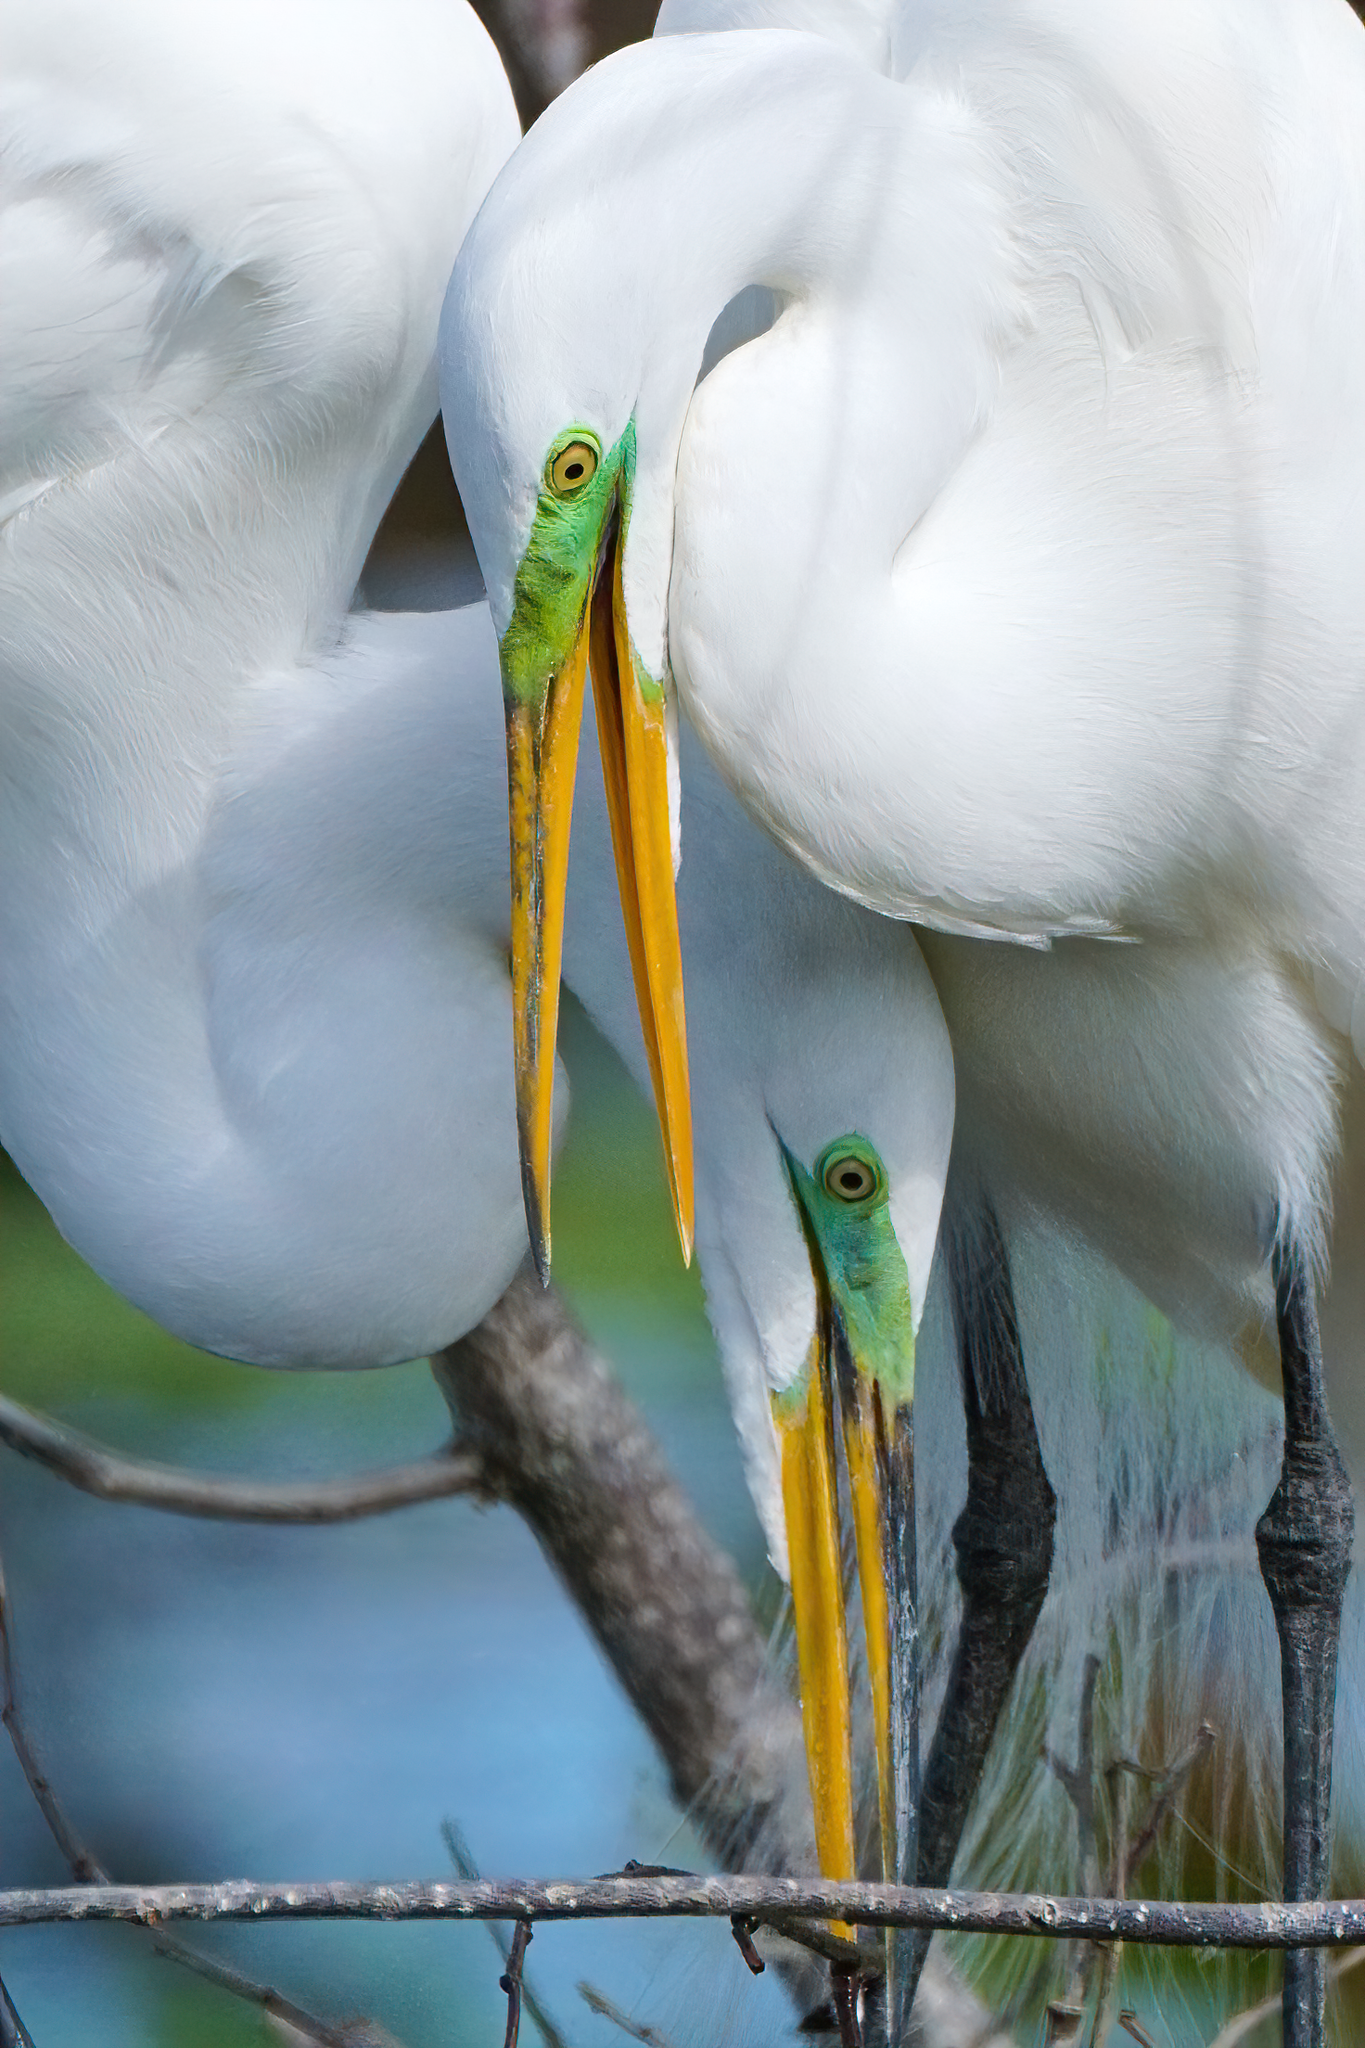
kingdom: Animalia
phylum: Chordata
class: Aves
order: Pelecaniformes
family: Ardeidae
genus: Ardea
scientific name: Ardea alba
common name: Great egret
